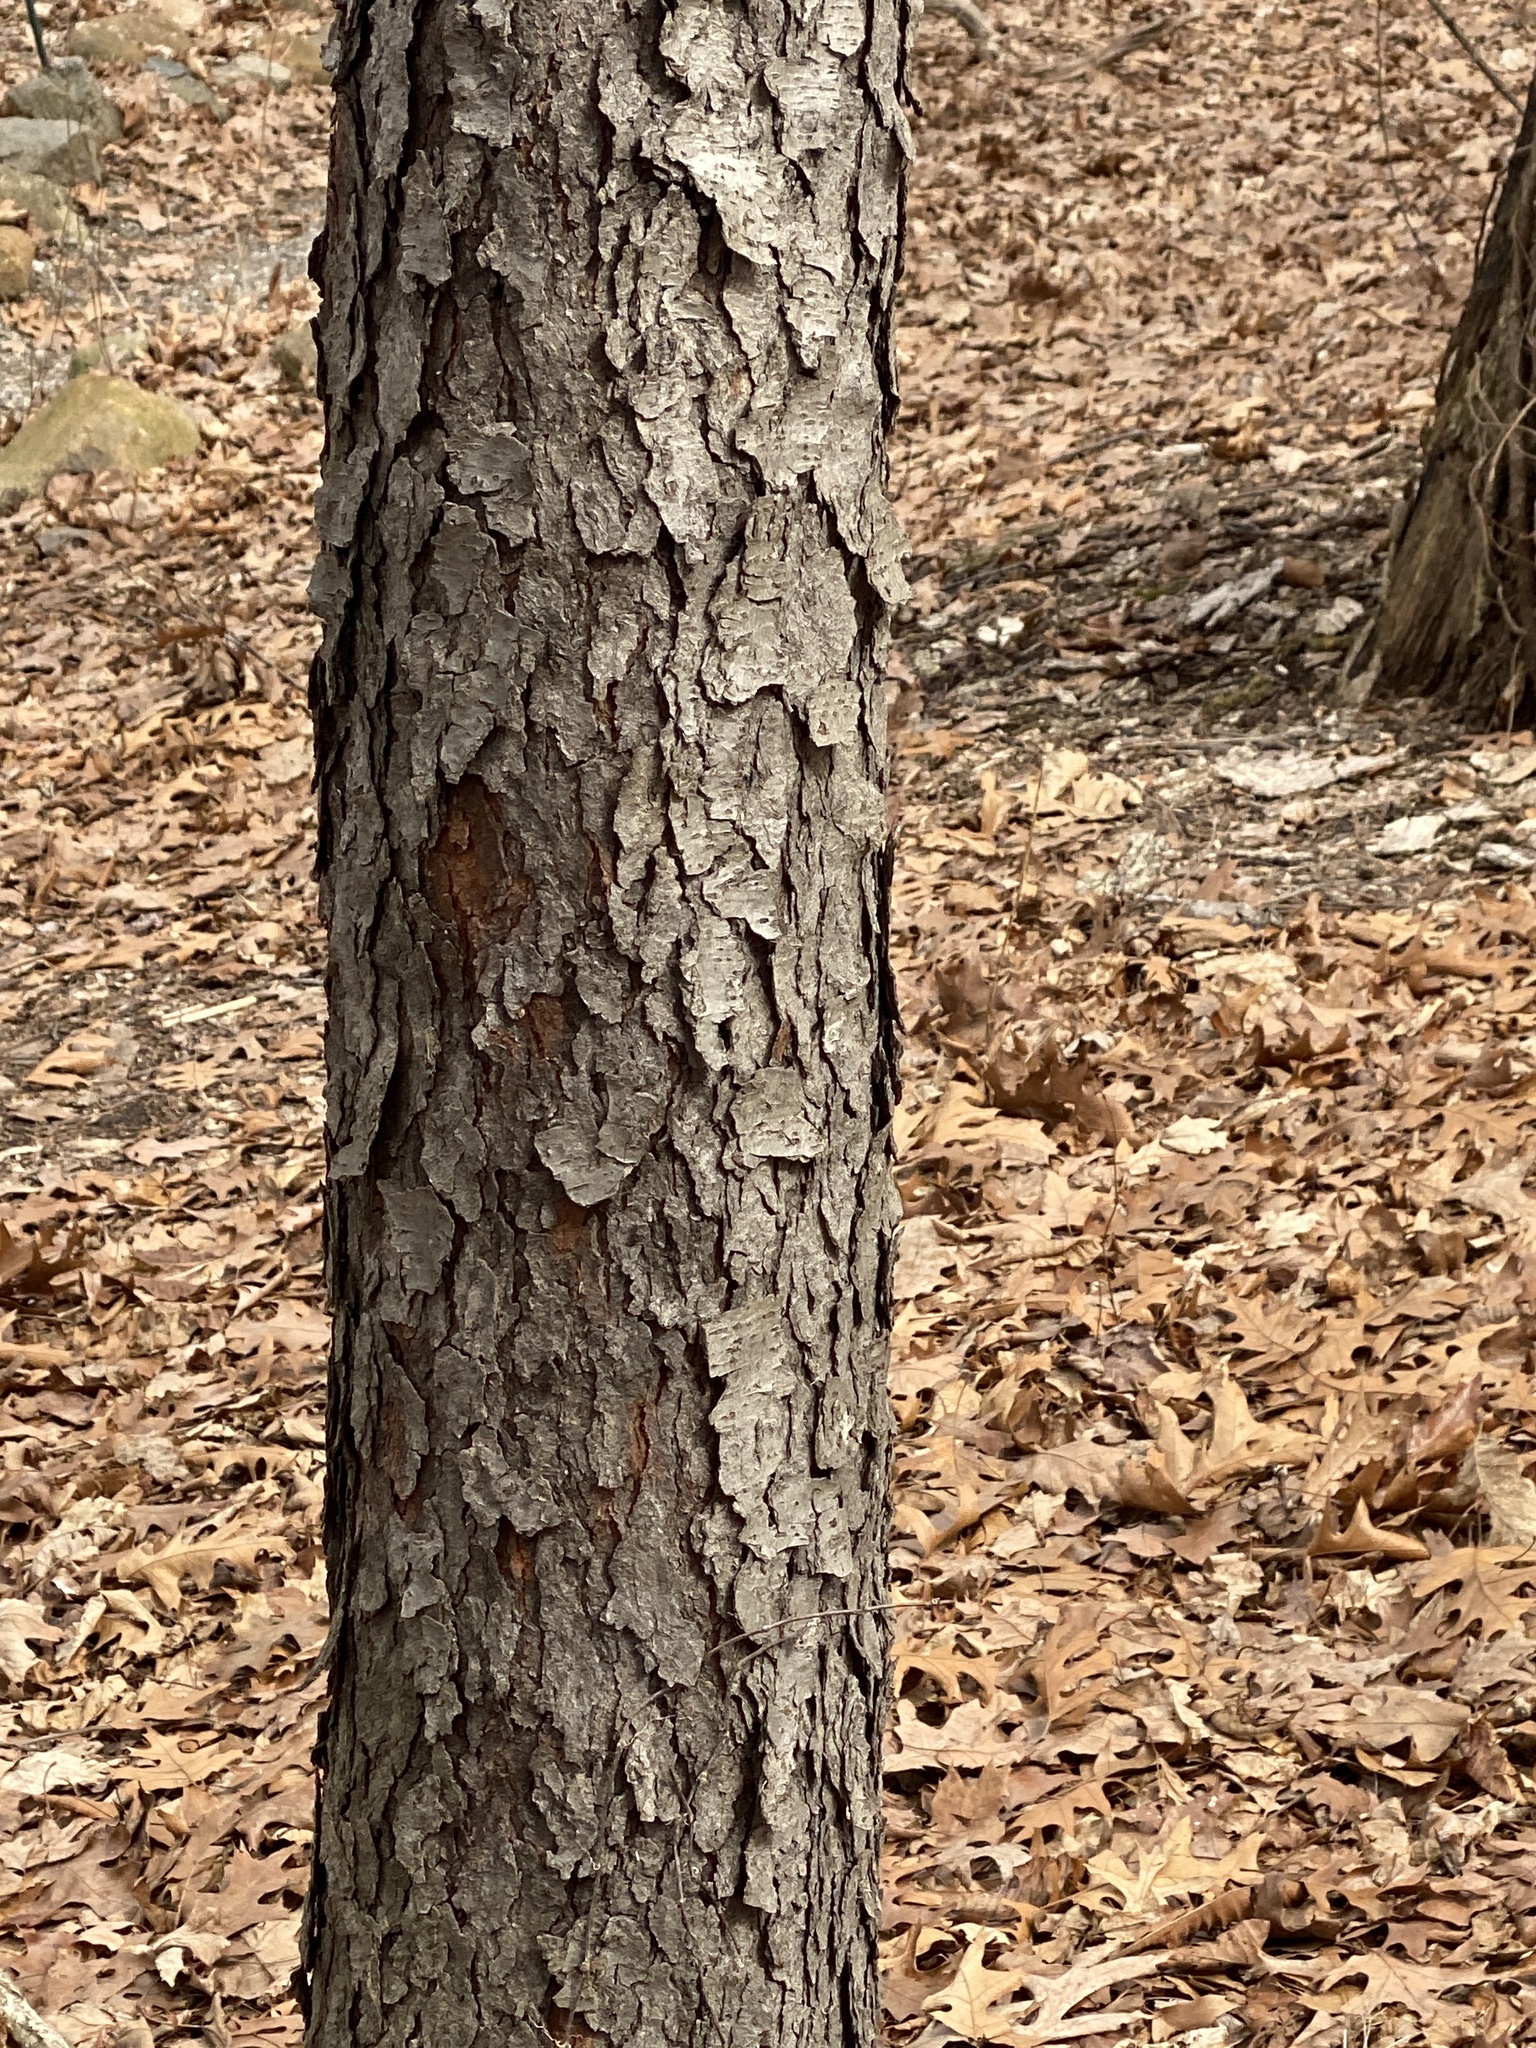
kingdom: Plantae
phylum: Tracheophyta
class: Magnoliopsida
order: Rosales
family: Rosaceae
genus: Prunus
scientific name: Prunus serotina
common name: Black cherry
